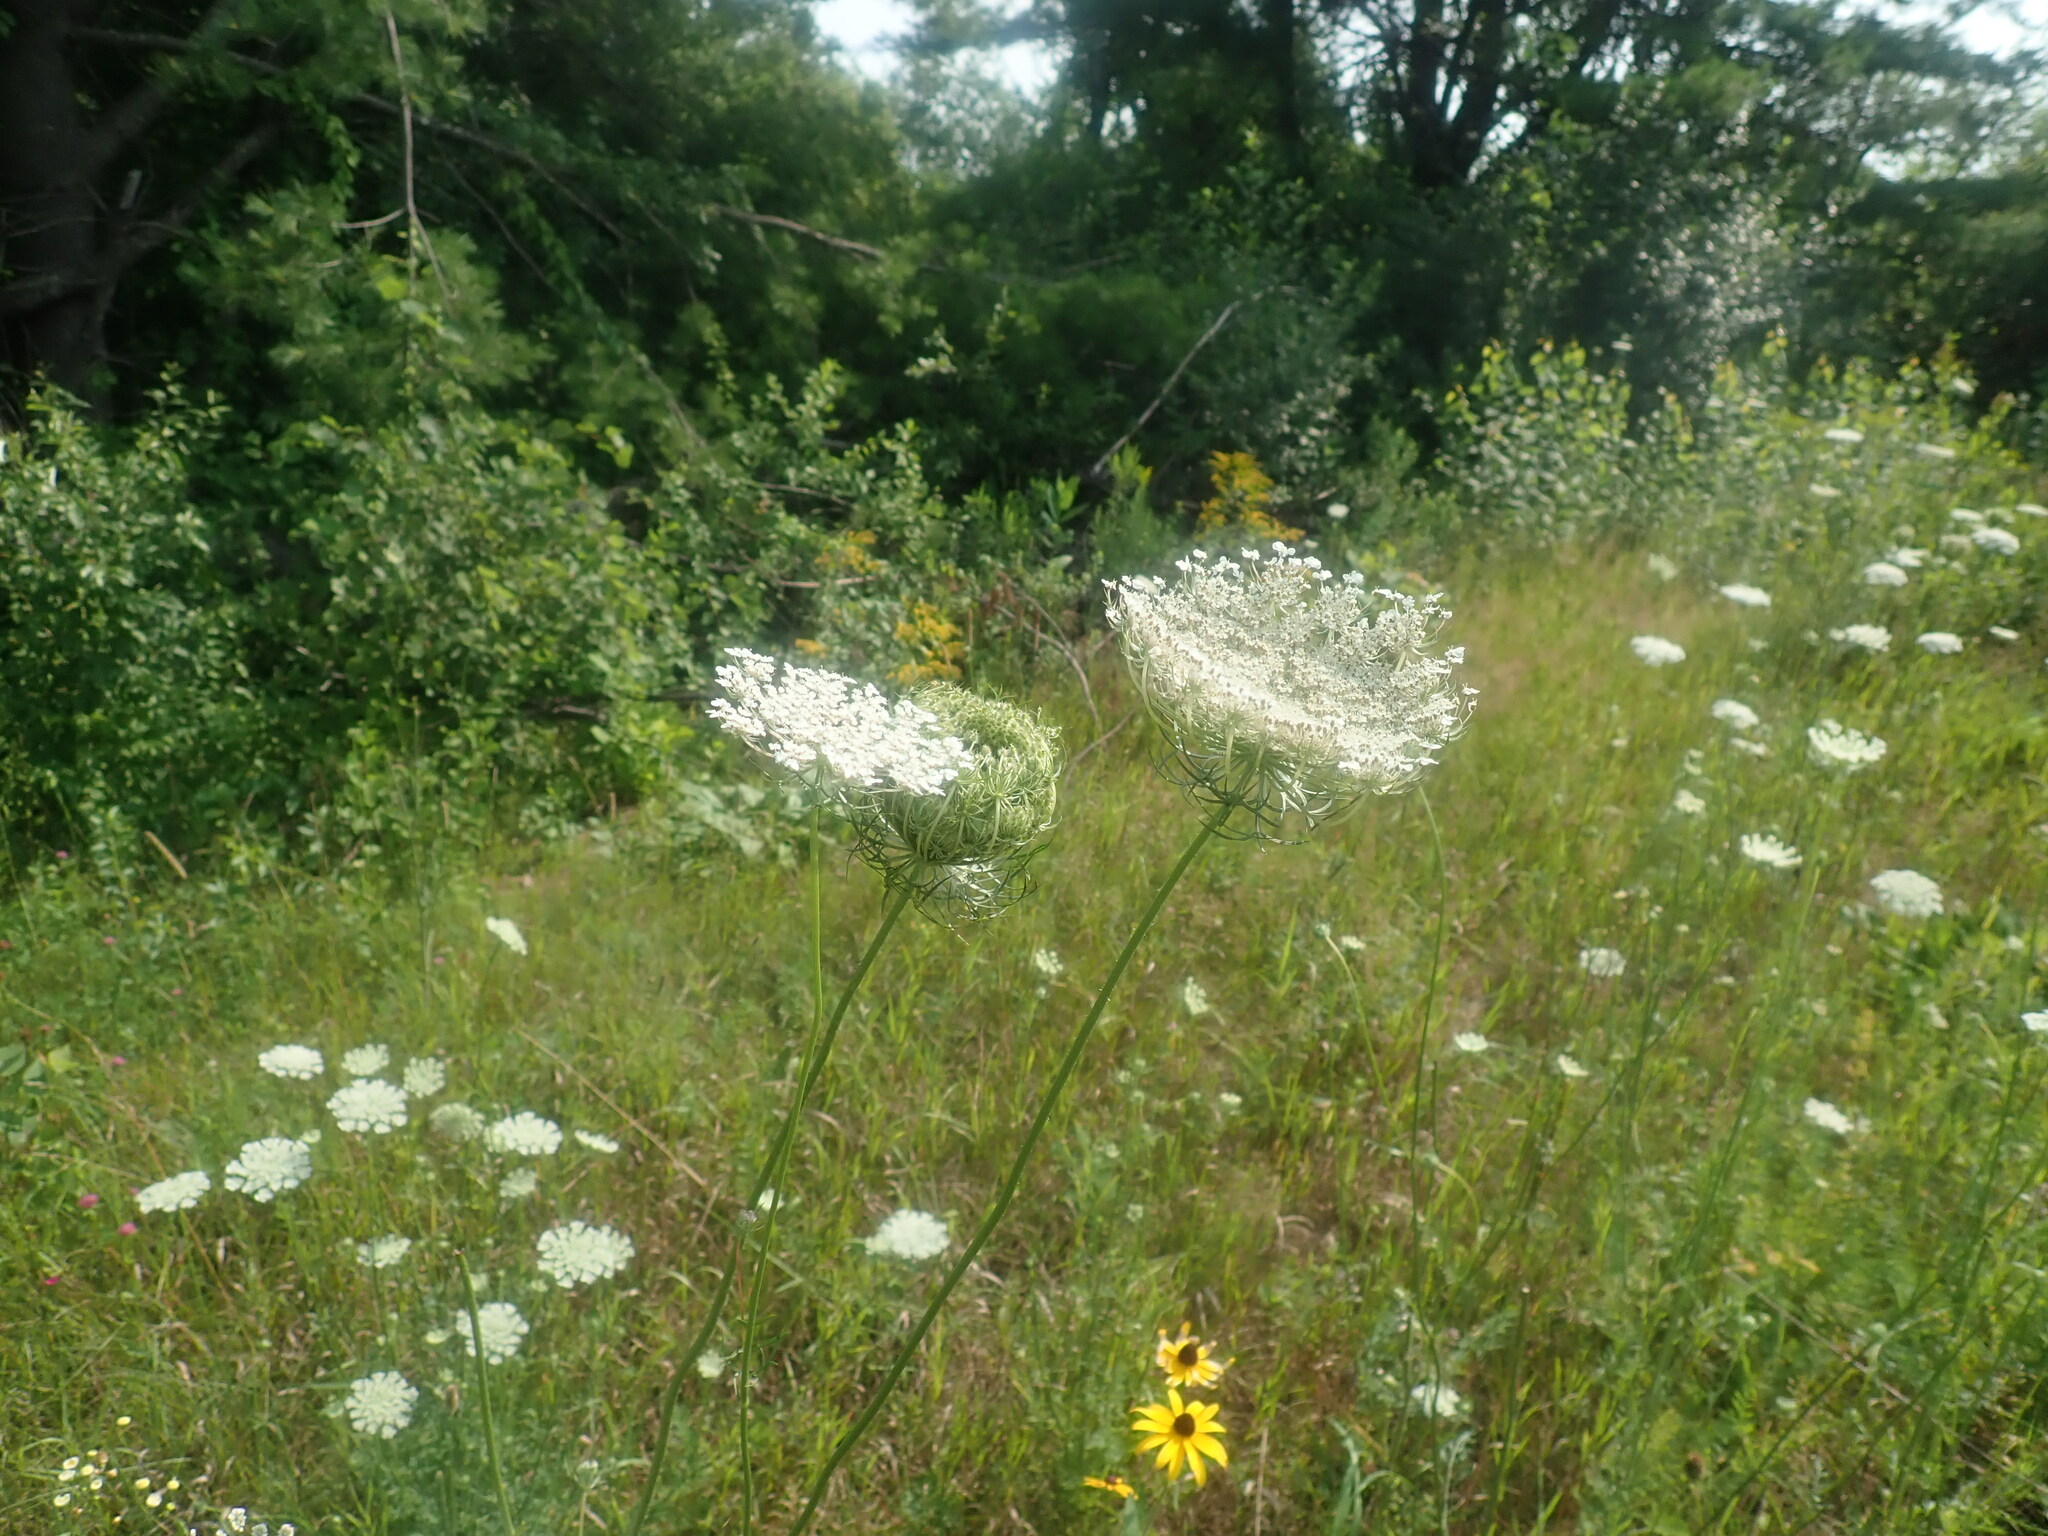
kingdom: Plantae
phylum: Tracheophyta
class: Magnoliopsida
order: Apiales
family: Apiaceae
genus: Daucus
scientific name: Daucus carota
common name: Wild carrot
